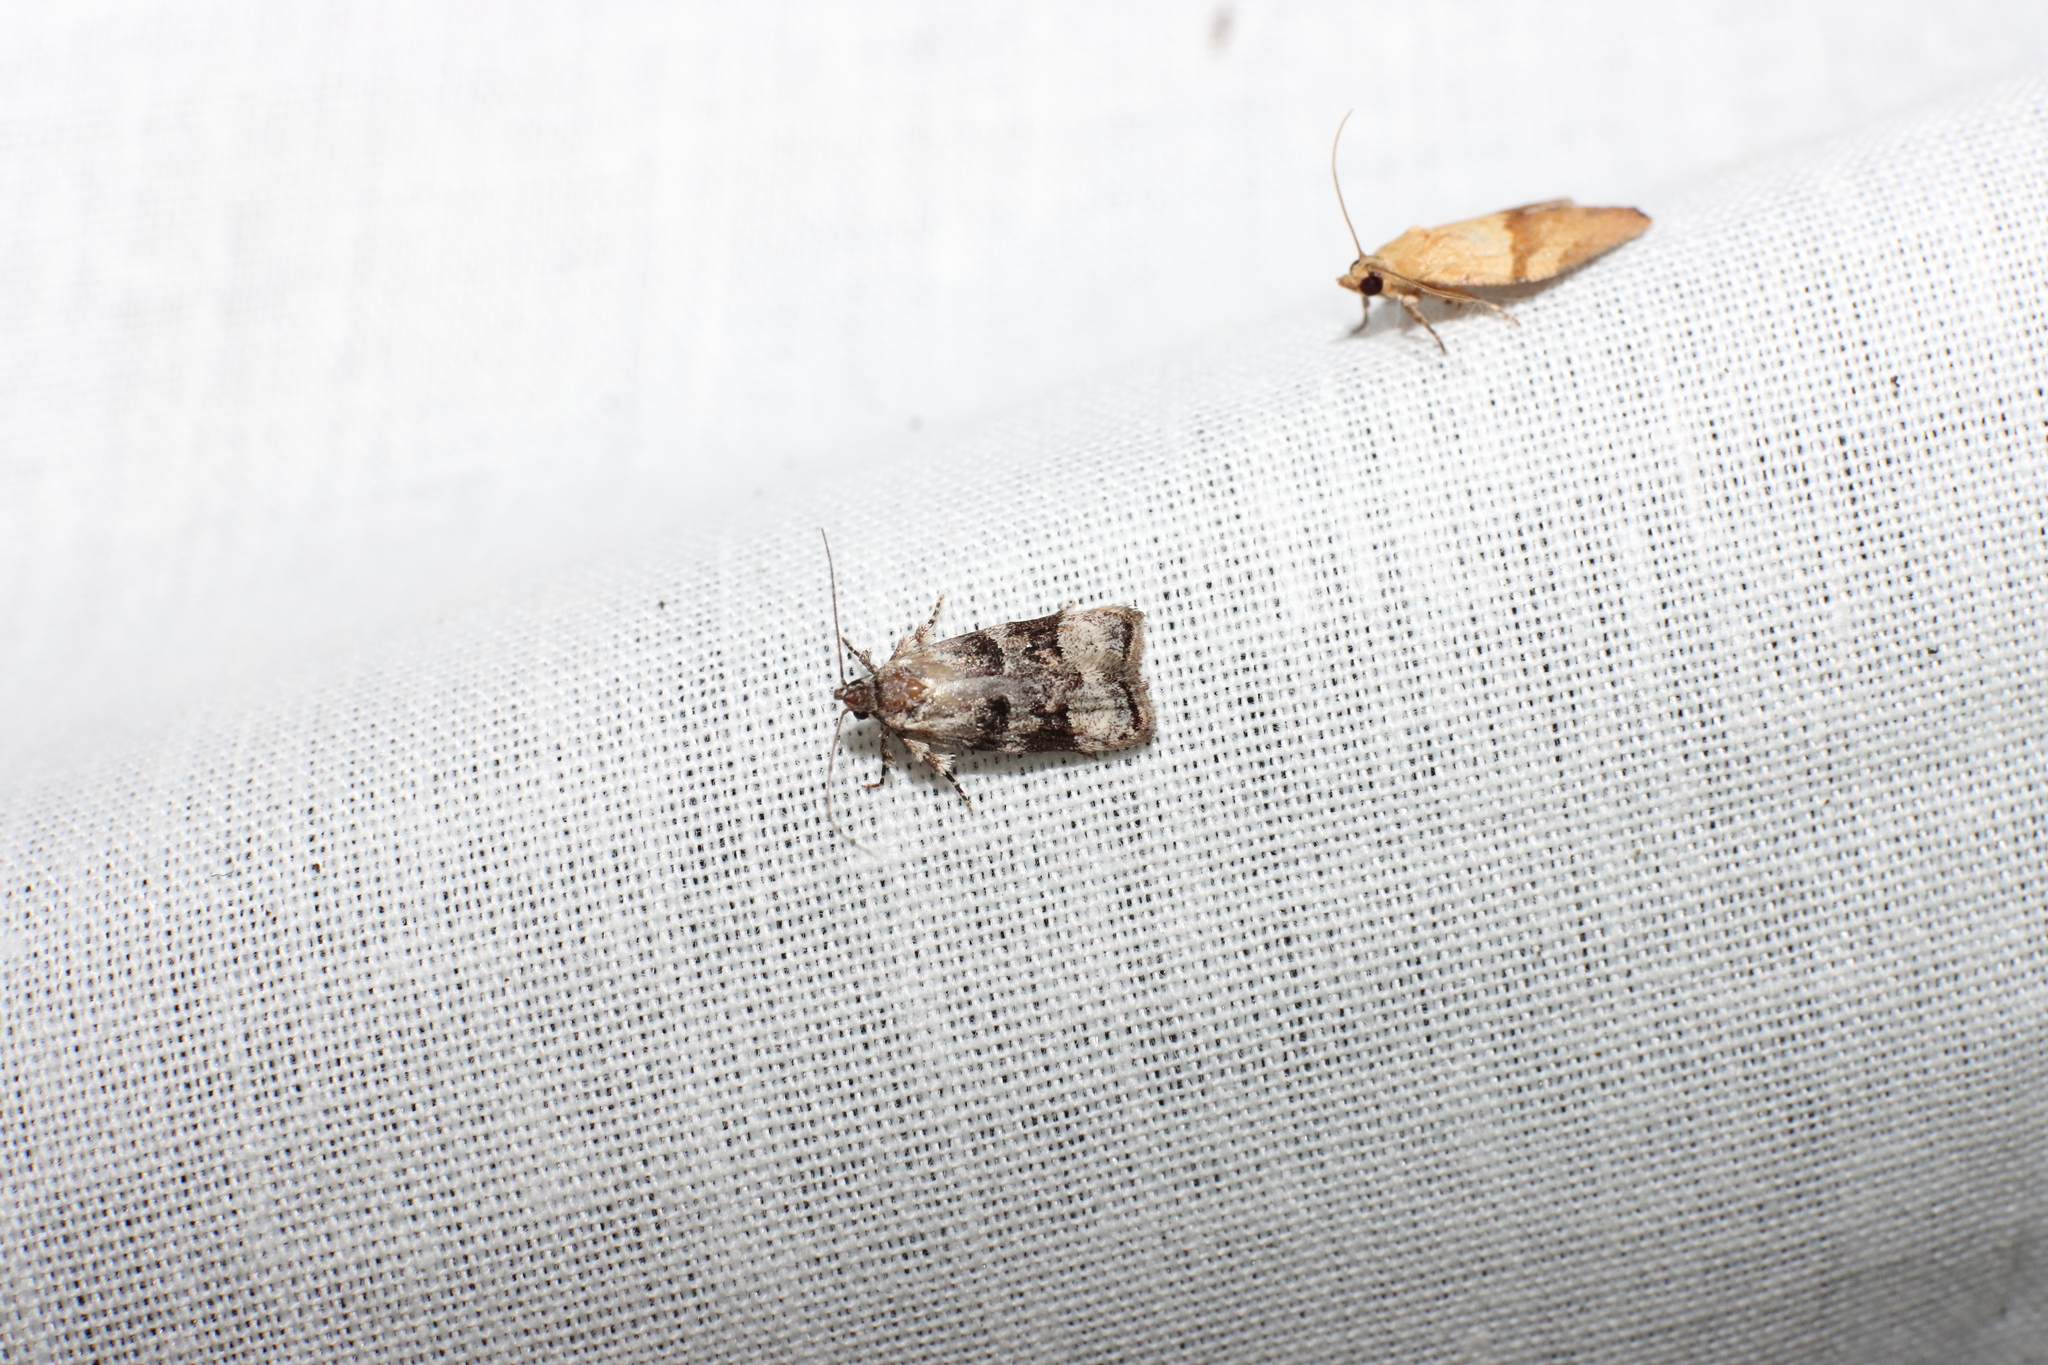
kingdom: Animalia
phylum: Arthropoda
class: Insecta
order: Lepidoptera
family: Oecophoridae
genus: Izatha
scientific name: Izatha metadelta
